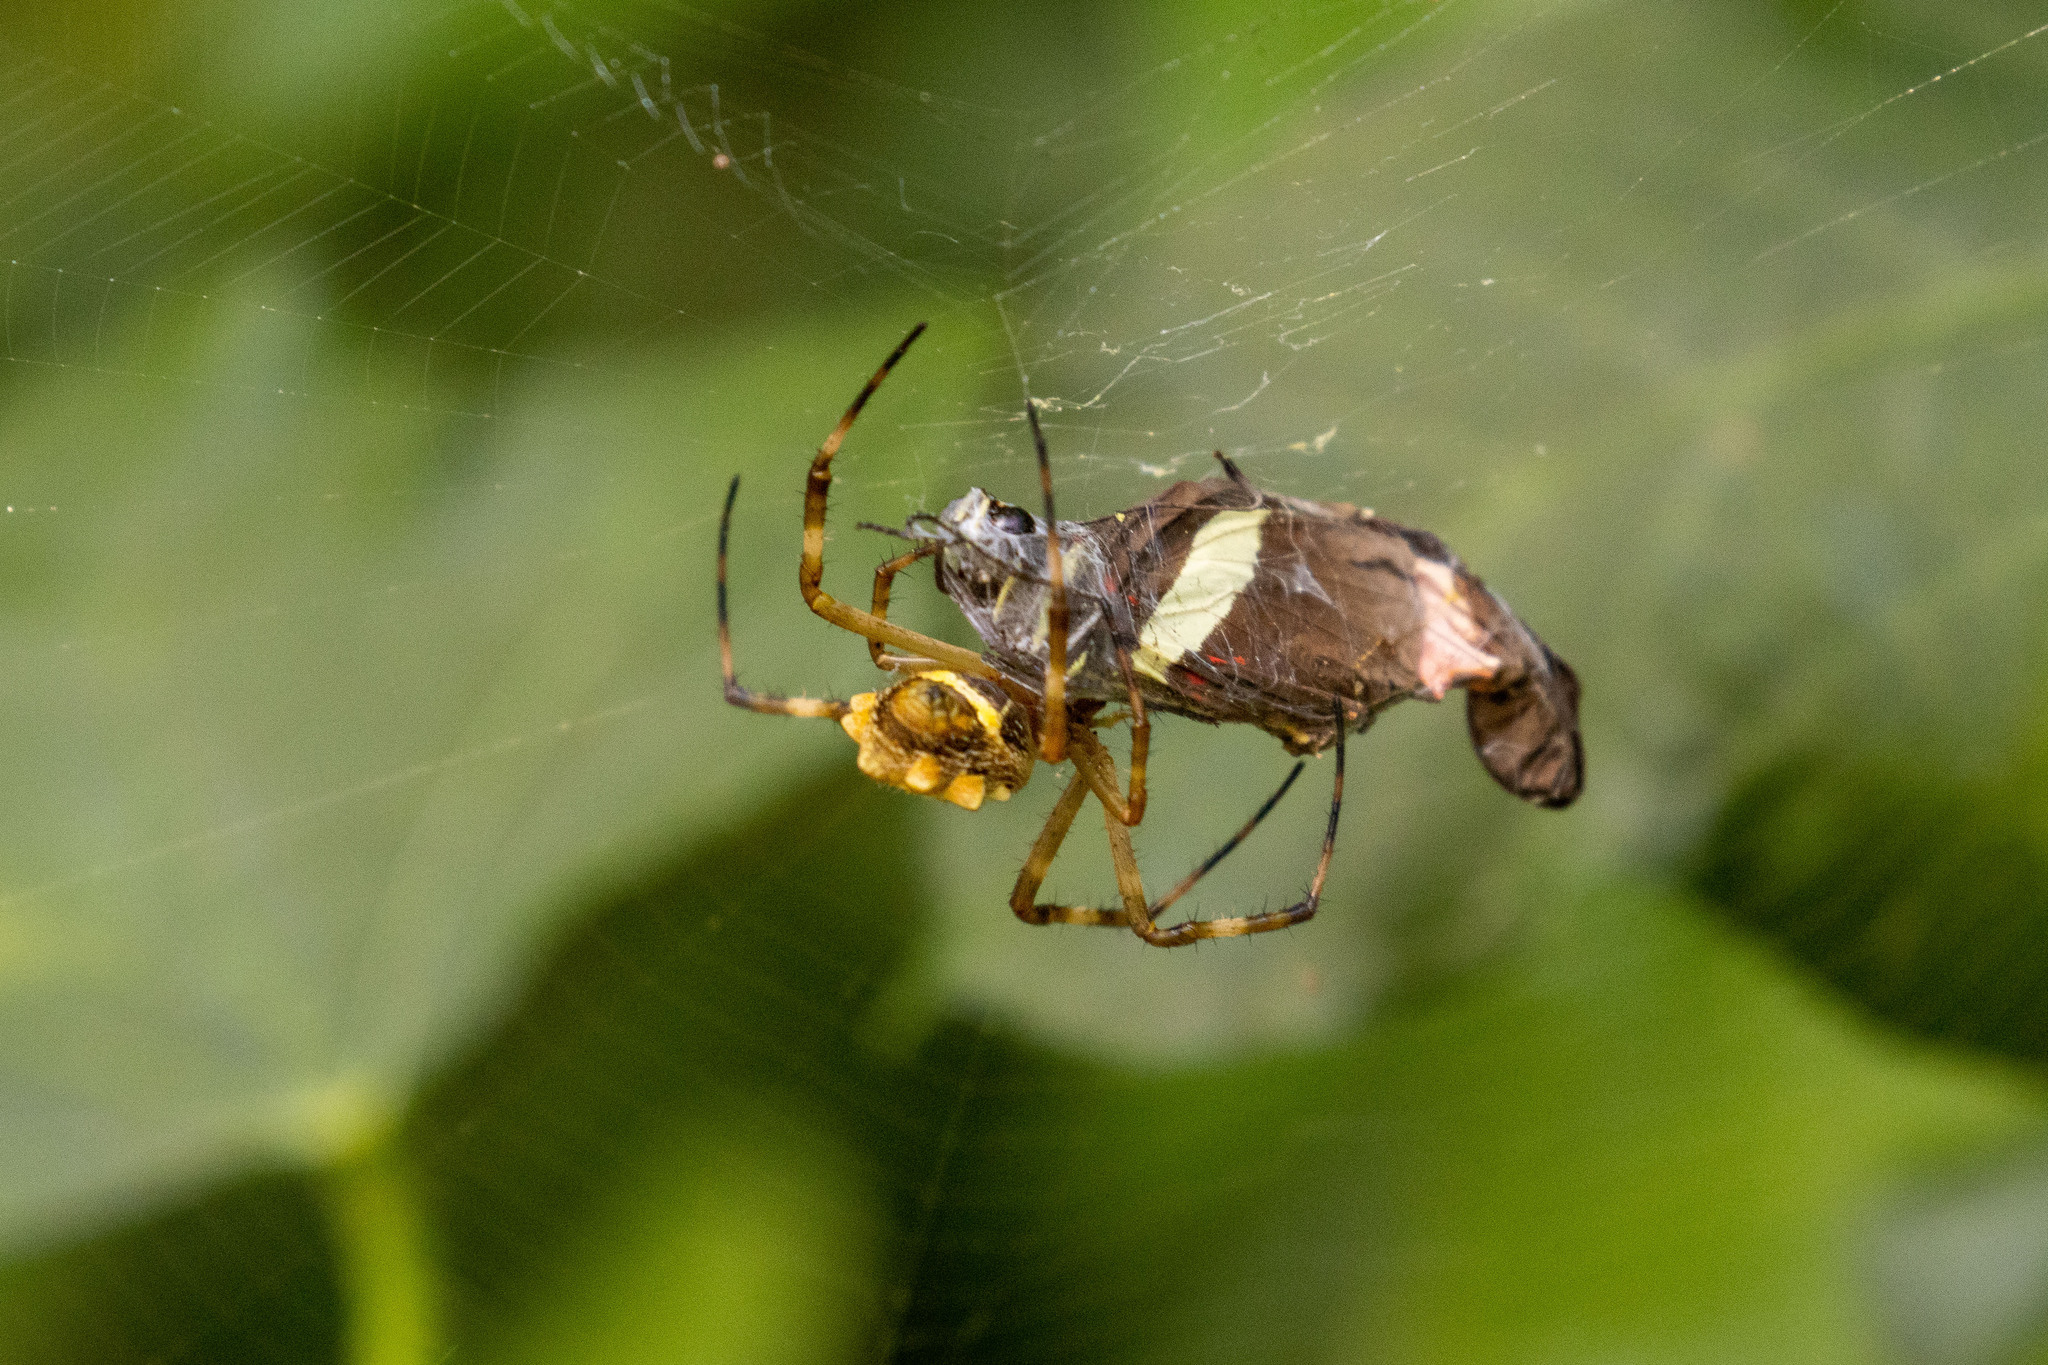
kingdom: Animalia
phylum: Arthropoda
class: Arachnida
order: Araneae
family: Araneidae
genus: Argiope
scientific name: Argiope argentata
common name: Orb weavers
